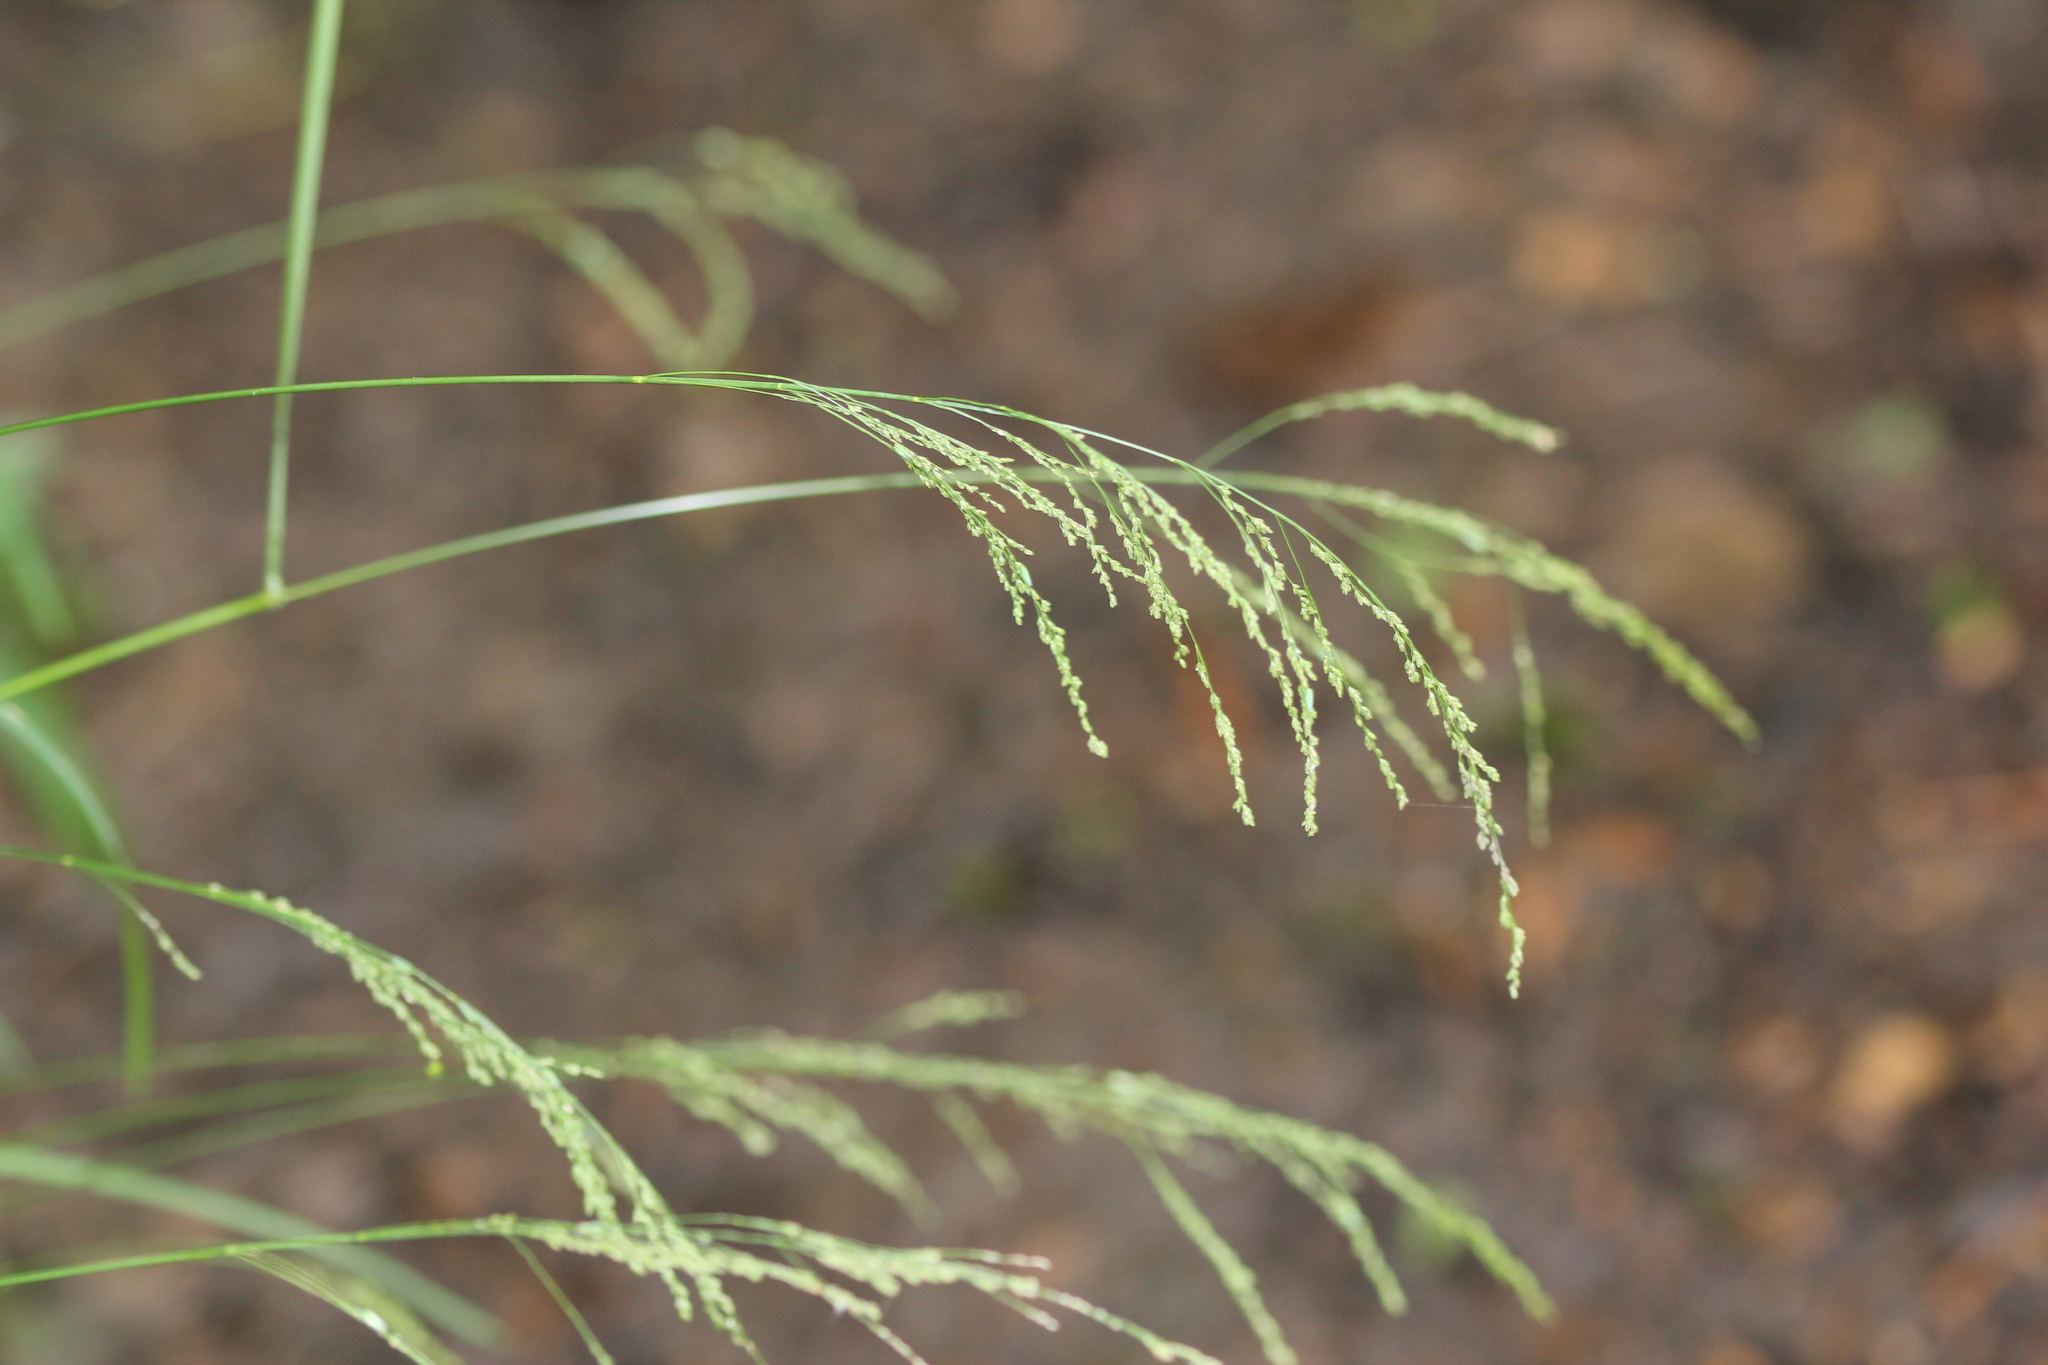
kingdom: Plantae
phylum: Tracheophyta
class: Liliopsida
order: Poales
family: Poaceae
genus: Glyceria
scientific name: Glyceria striata
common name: Fowl manna grass
